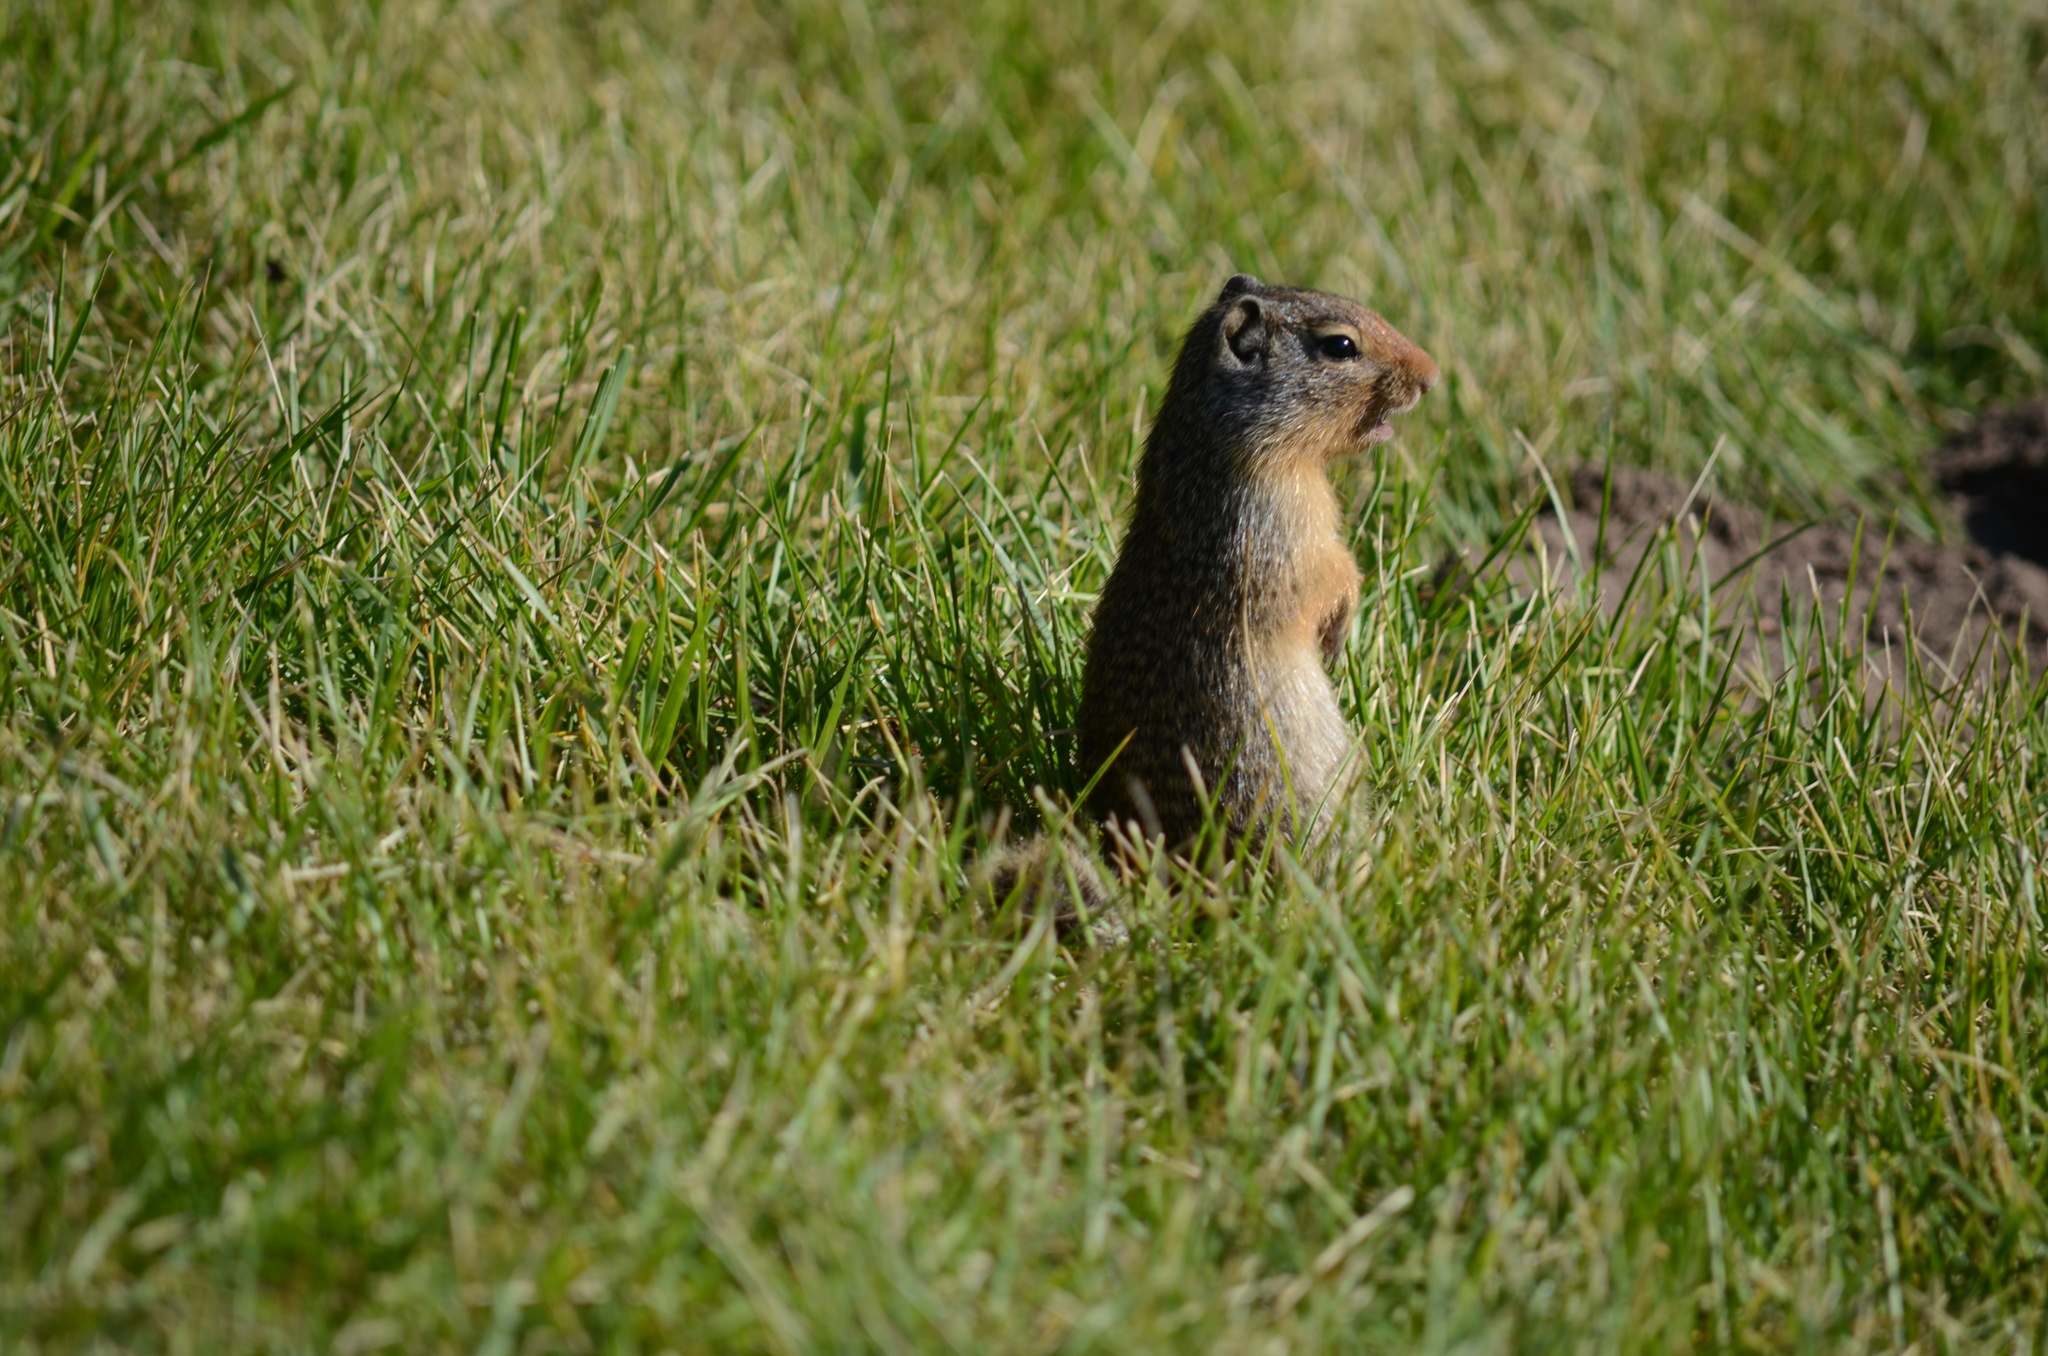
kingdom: Animalia
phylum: Chordata
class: Mammalia
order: Rodentia
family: Sciuridae
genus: Urocitellus
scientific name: Urocitellus columbianus
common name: Columbian ground squirrel
